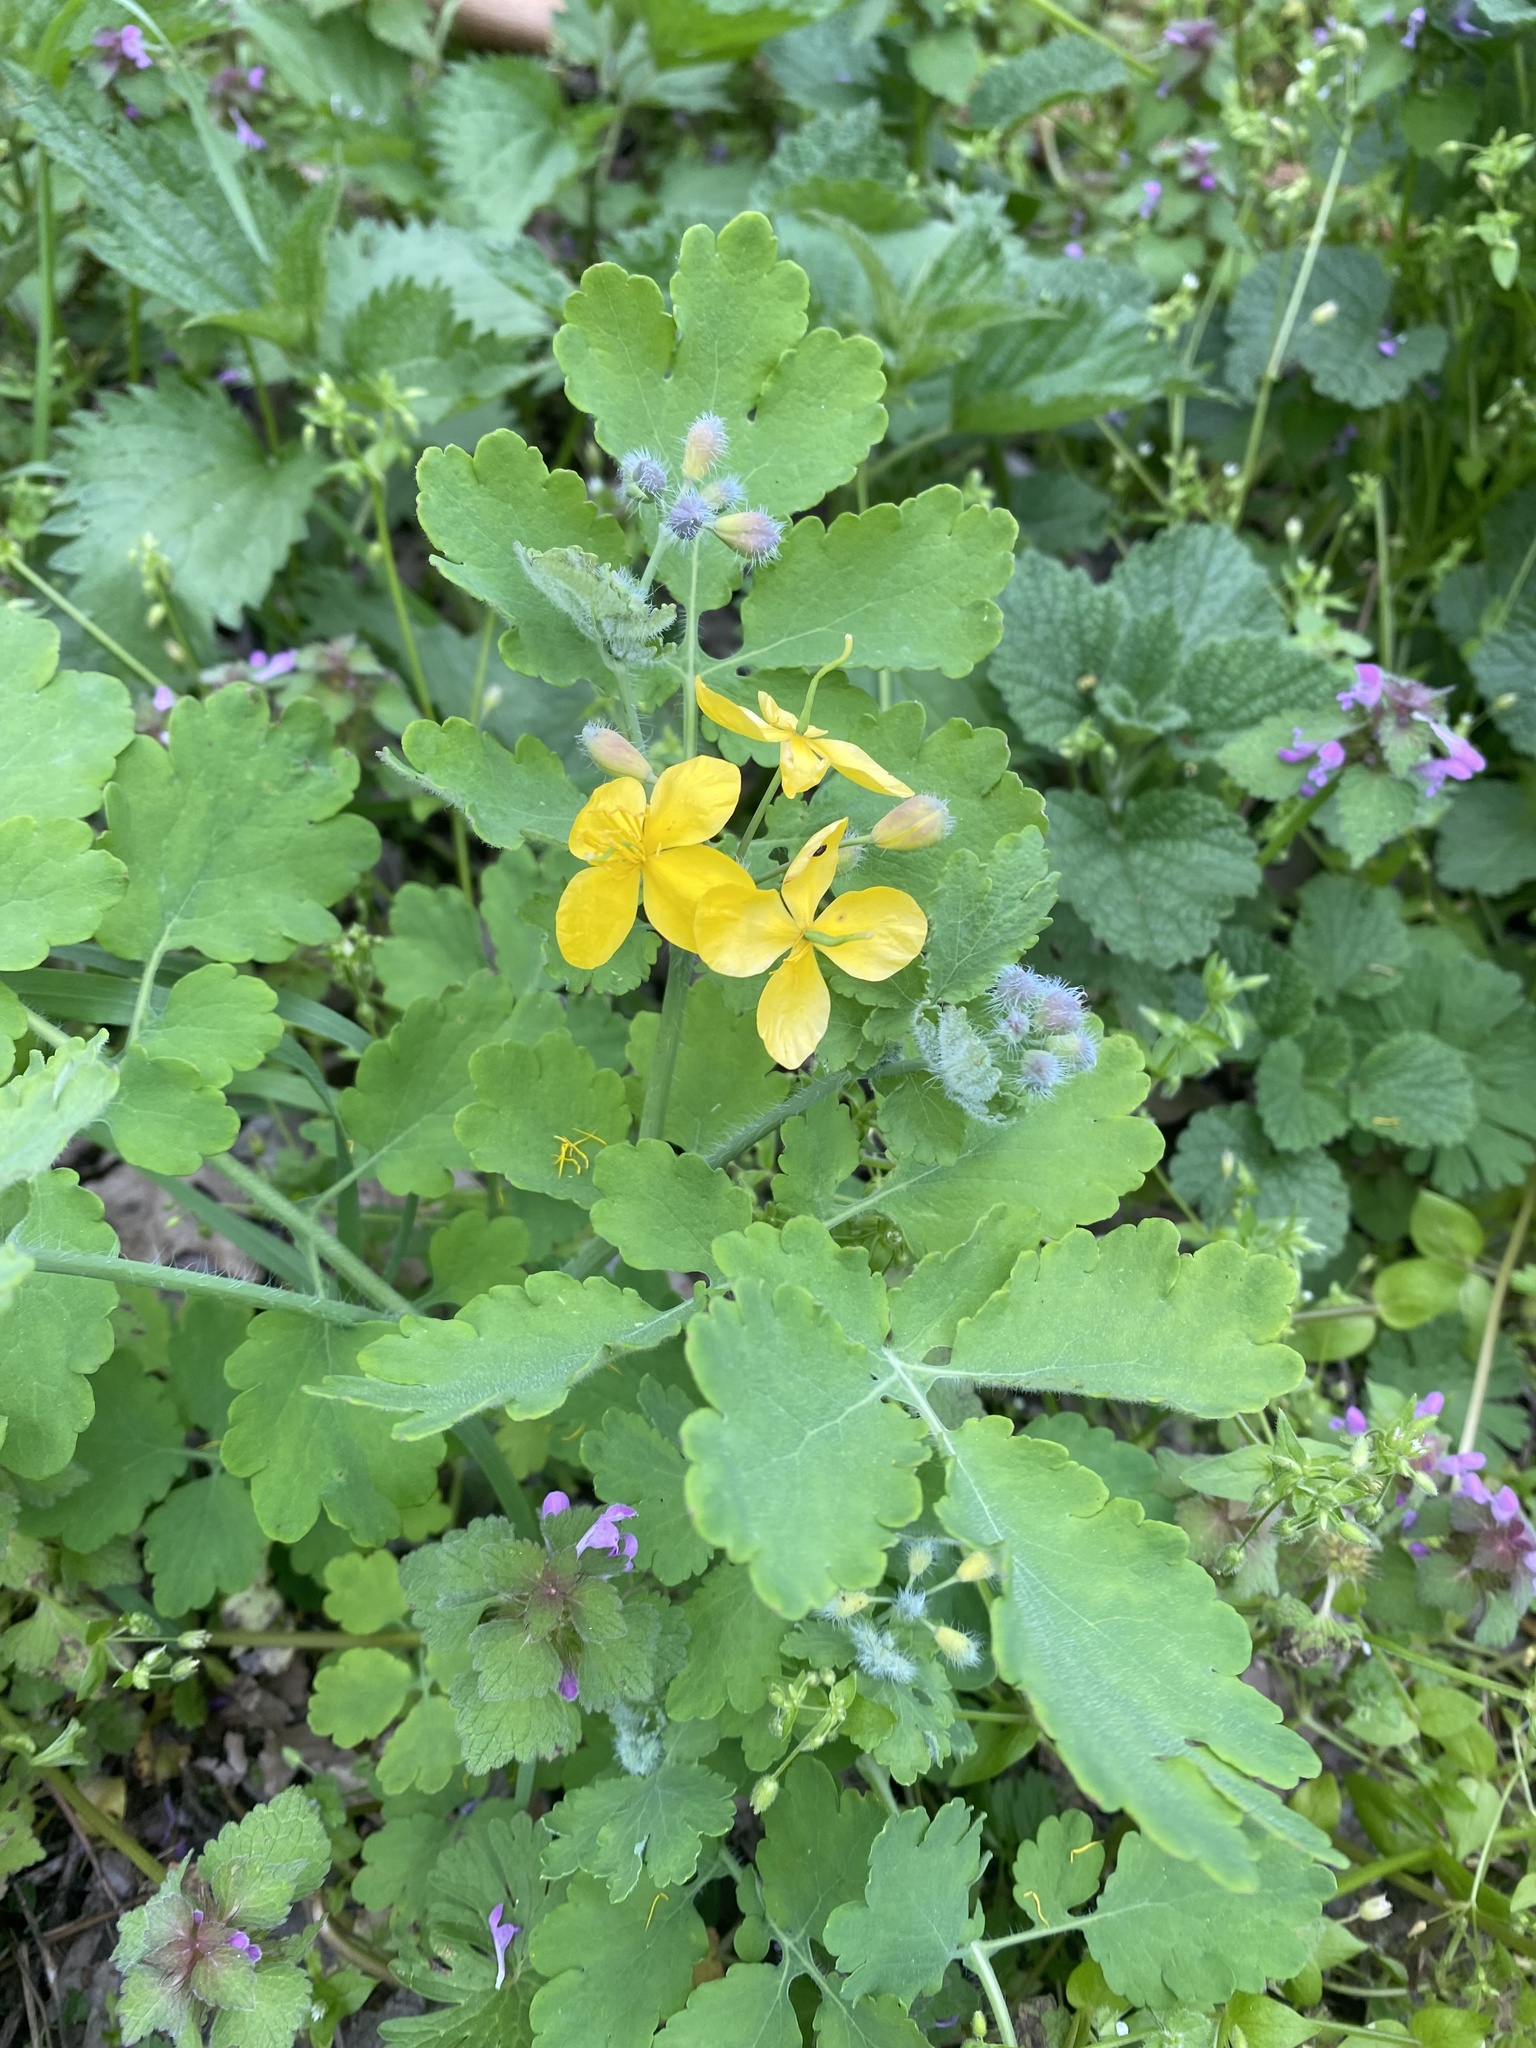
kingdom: Plantae
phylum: Tracheophyta
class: Magnoliopsida
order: Ranunculales
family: Papaveraceae
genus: Chelidonium
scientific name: Chelidonium majus
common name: Greater celandine
